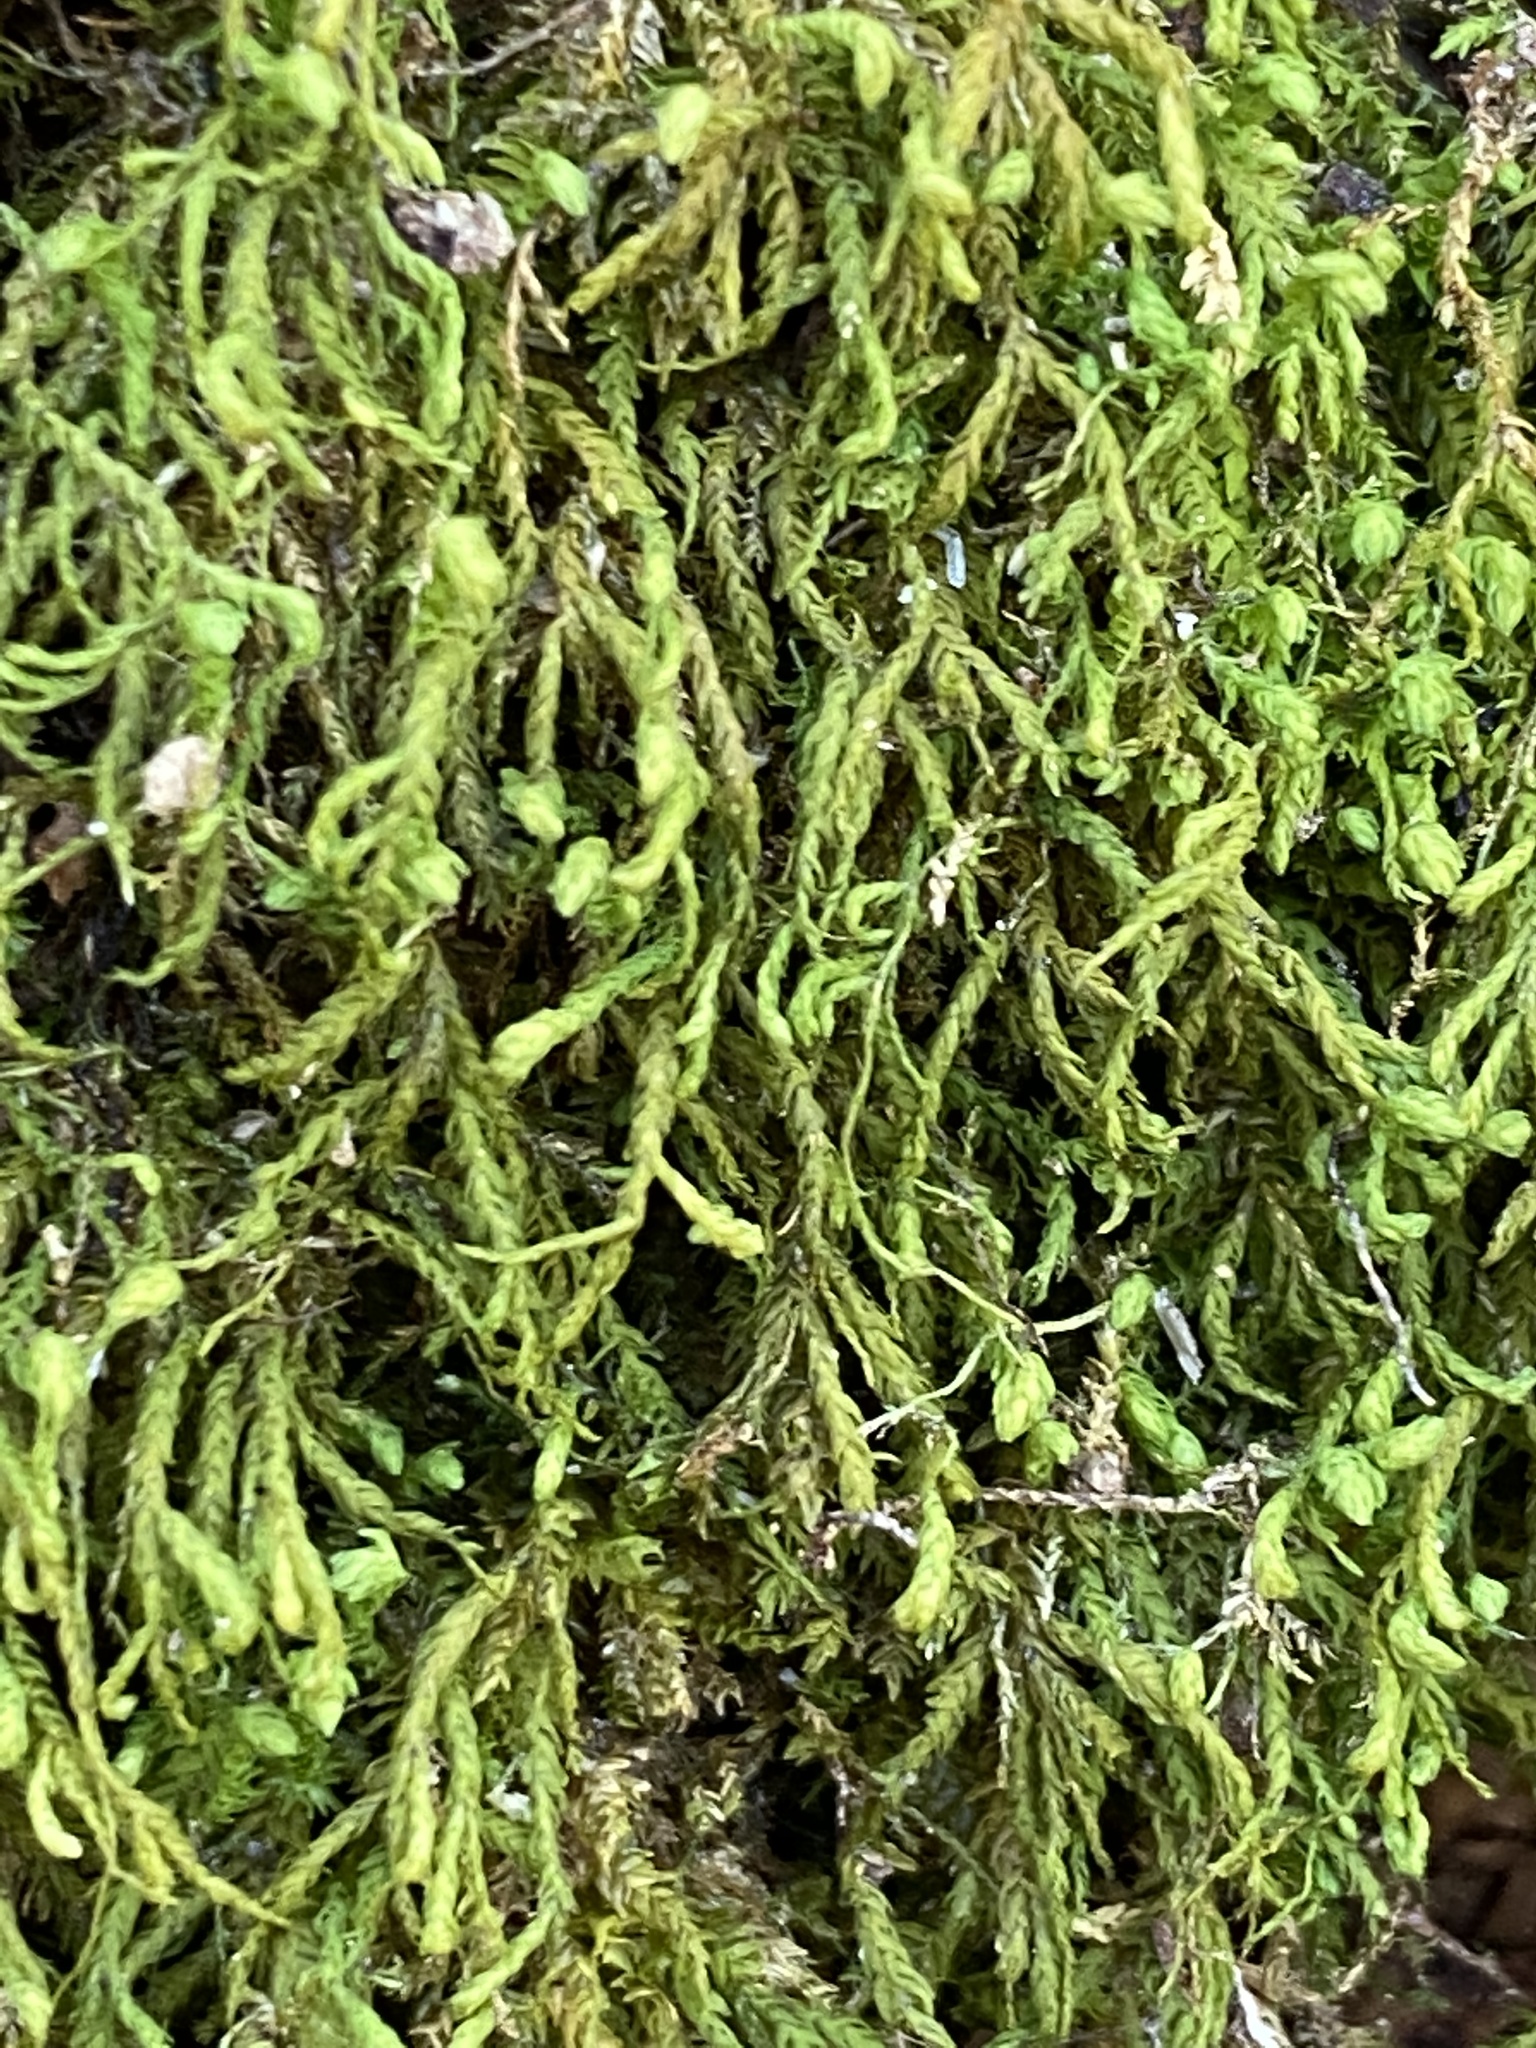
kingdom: Plantae
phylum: Bryophyta
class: Bryopsida
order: Hypnales
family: Neckeraceae
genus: Pseudanomodon
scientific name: Pseudanomodon attenuatus
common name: Tree-skirt moss
